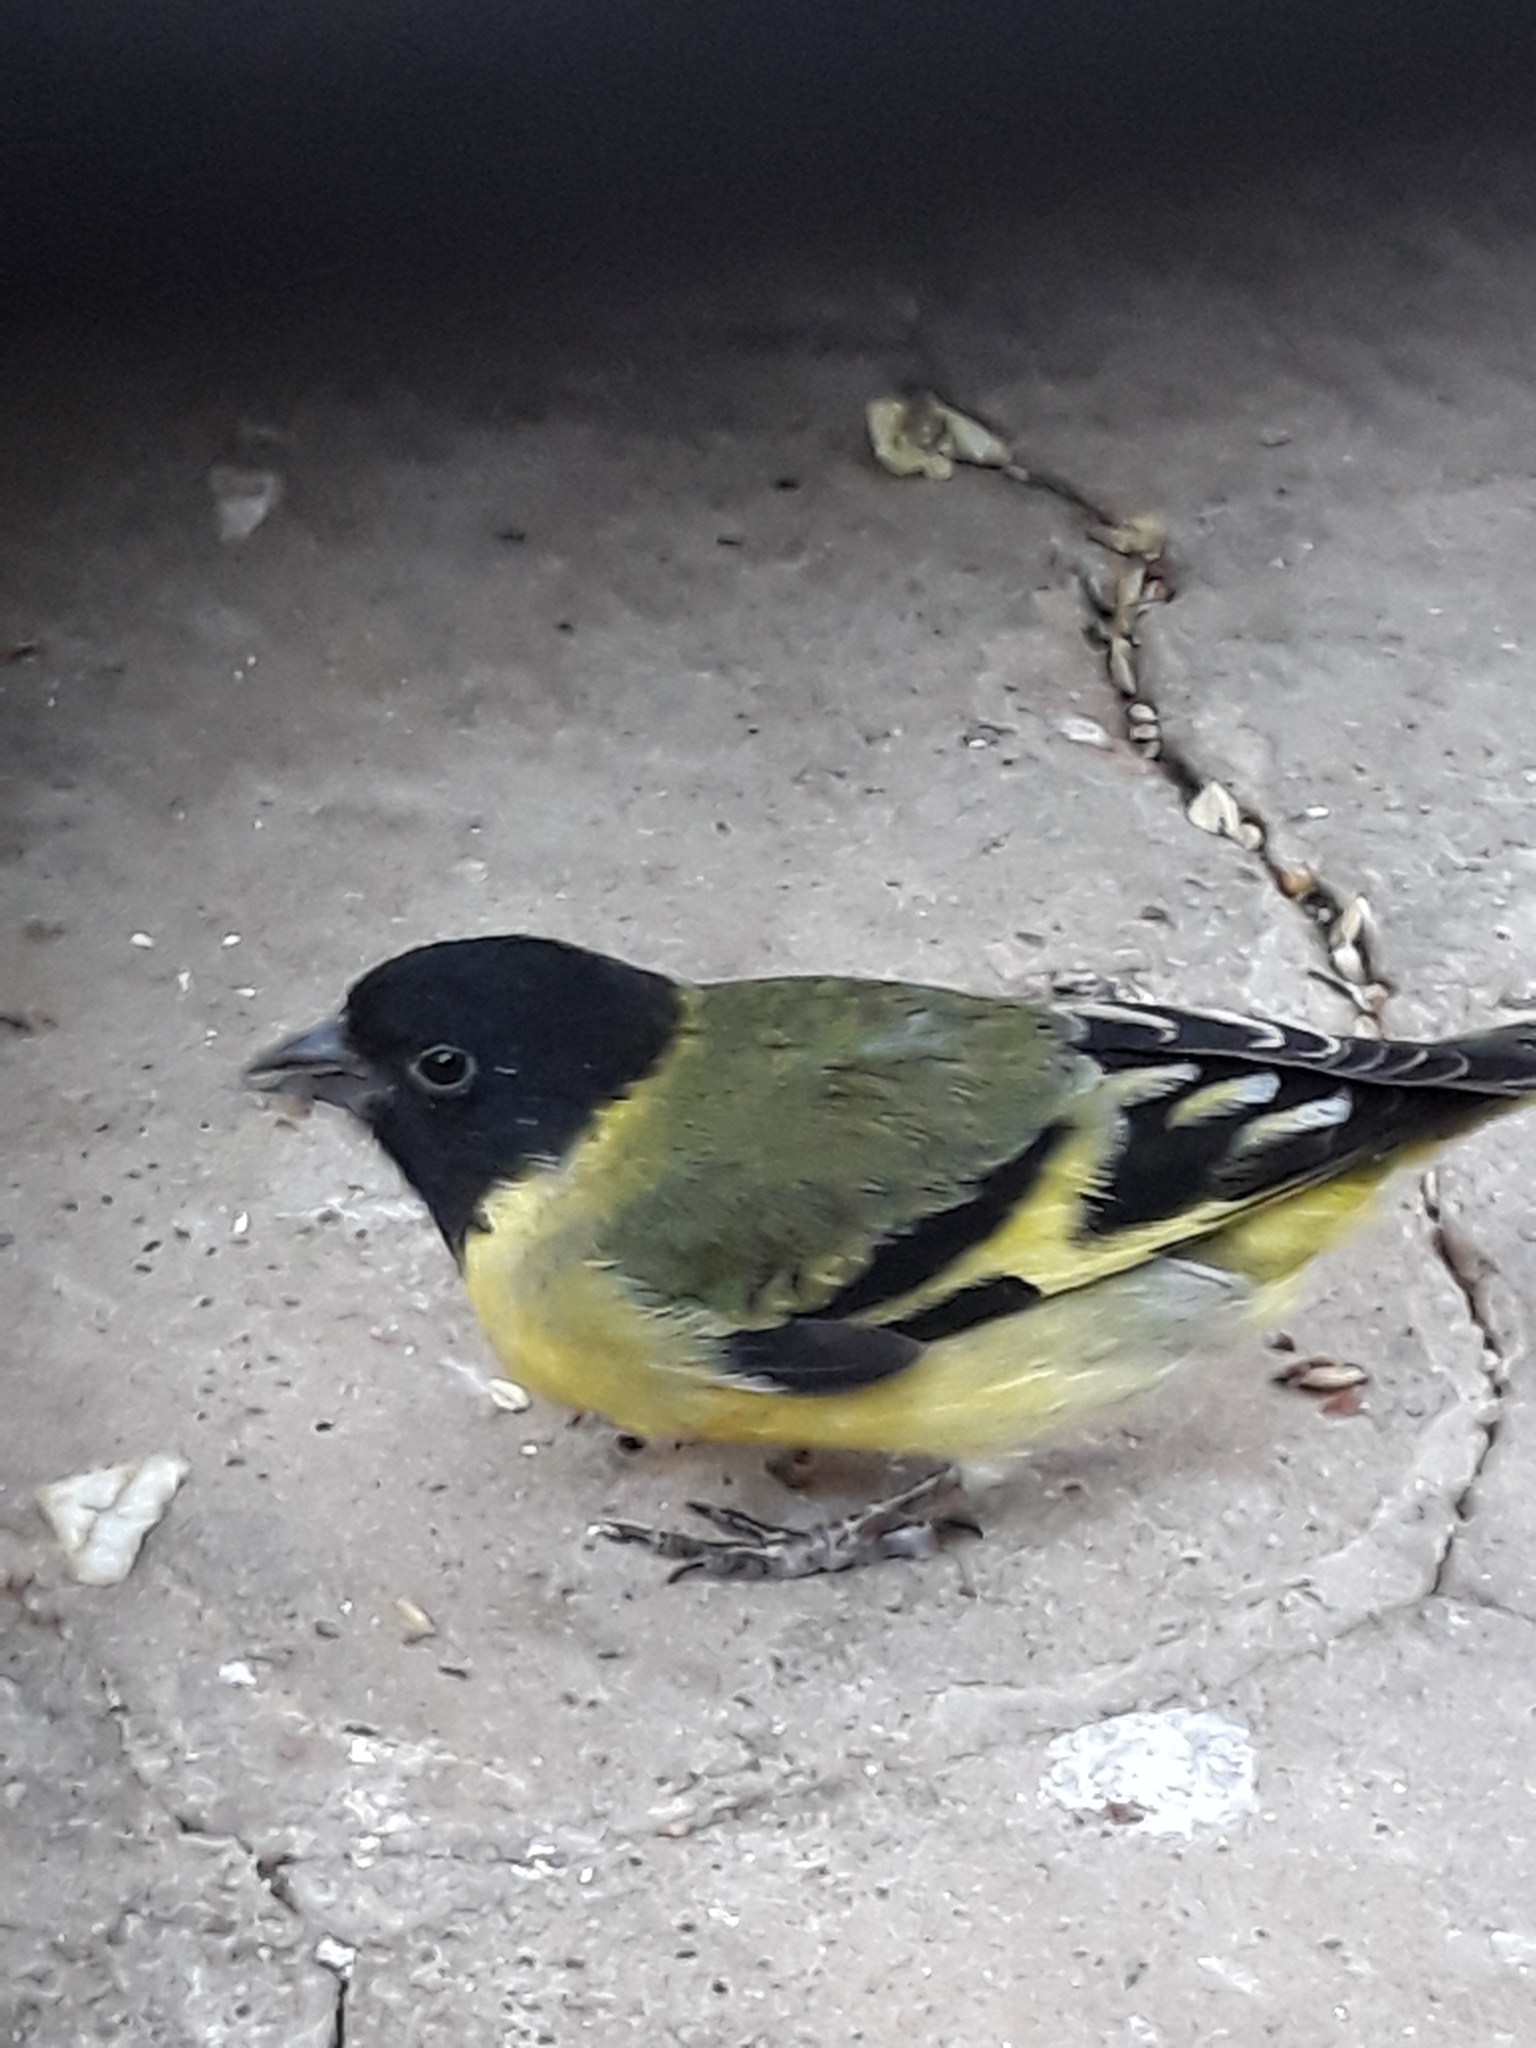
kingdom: Animalia
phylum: Chordata
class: Aves
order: Passeriformes
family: Fringillidae
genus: Spinus
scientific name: Spinus magellanicus
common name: Hooded siskin
